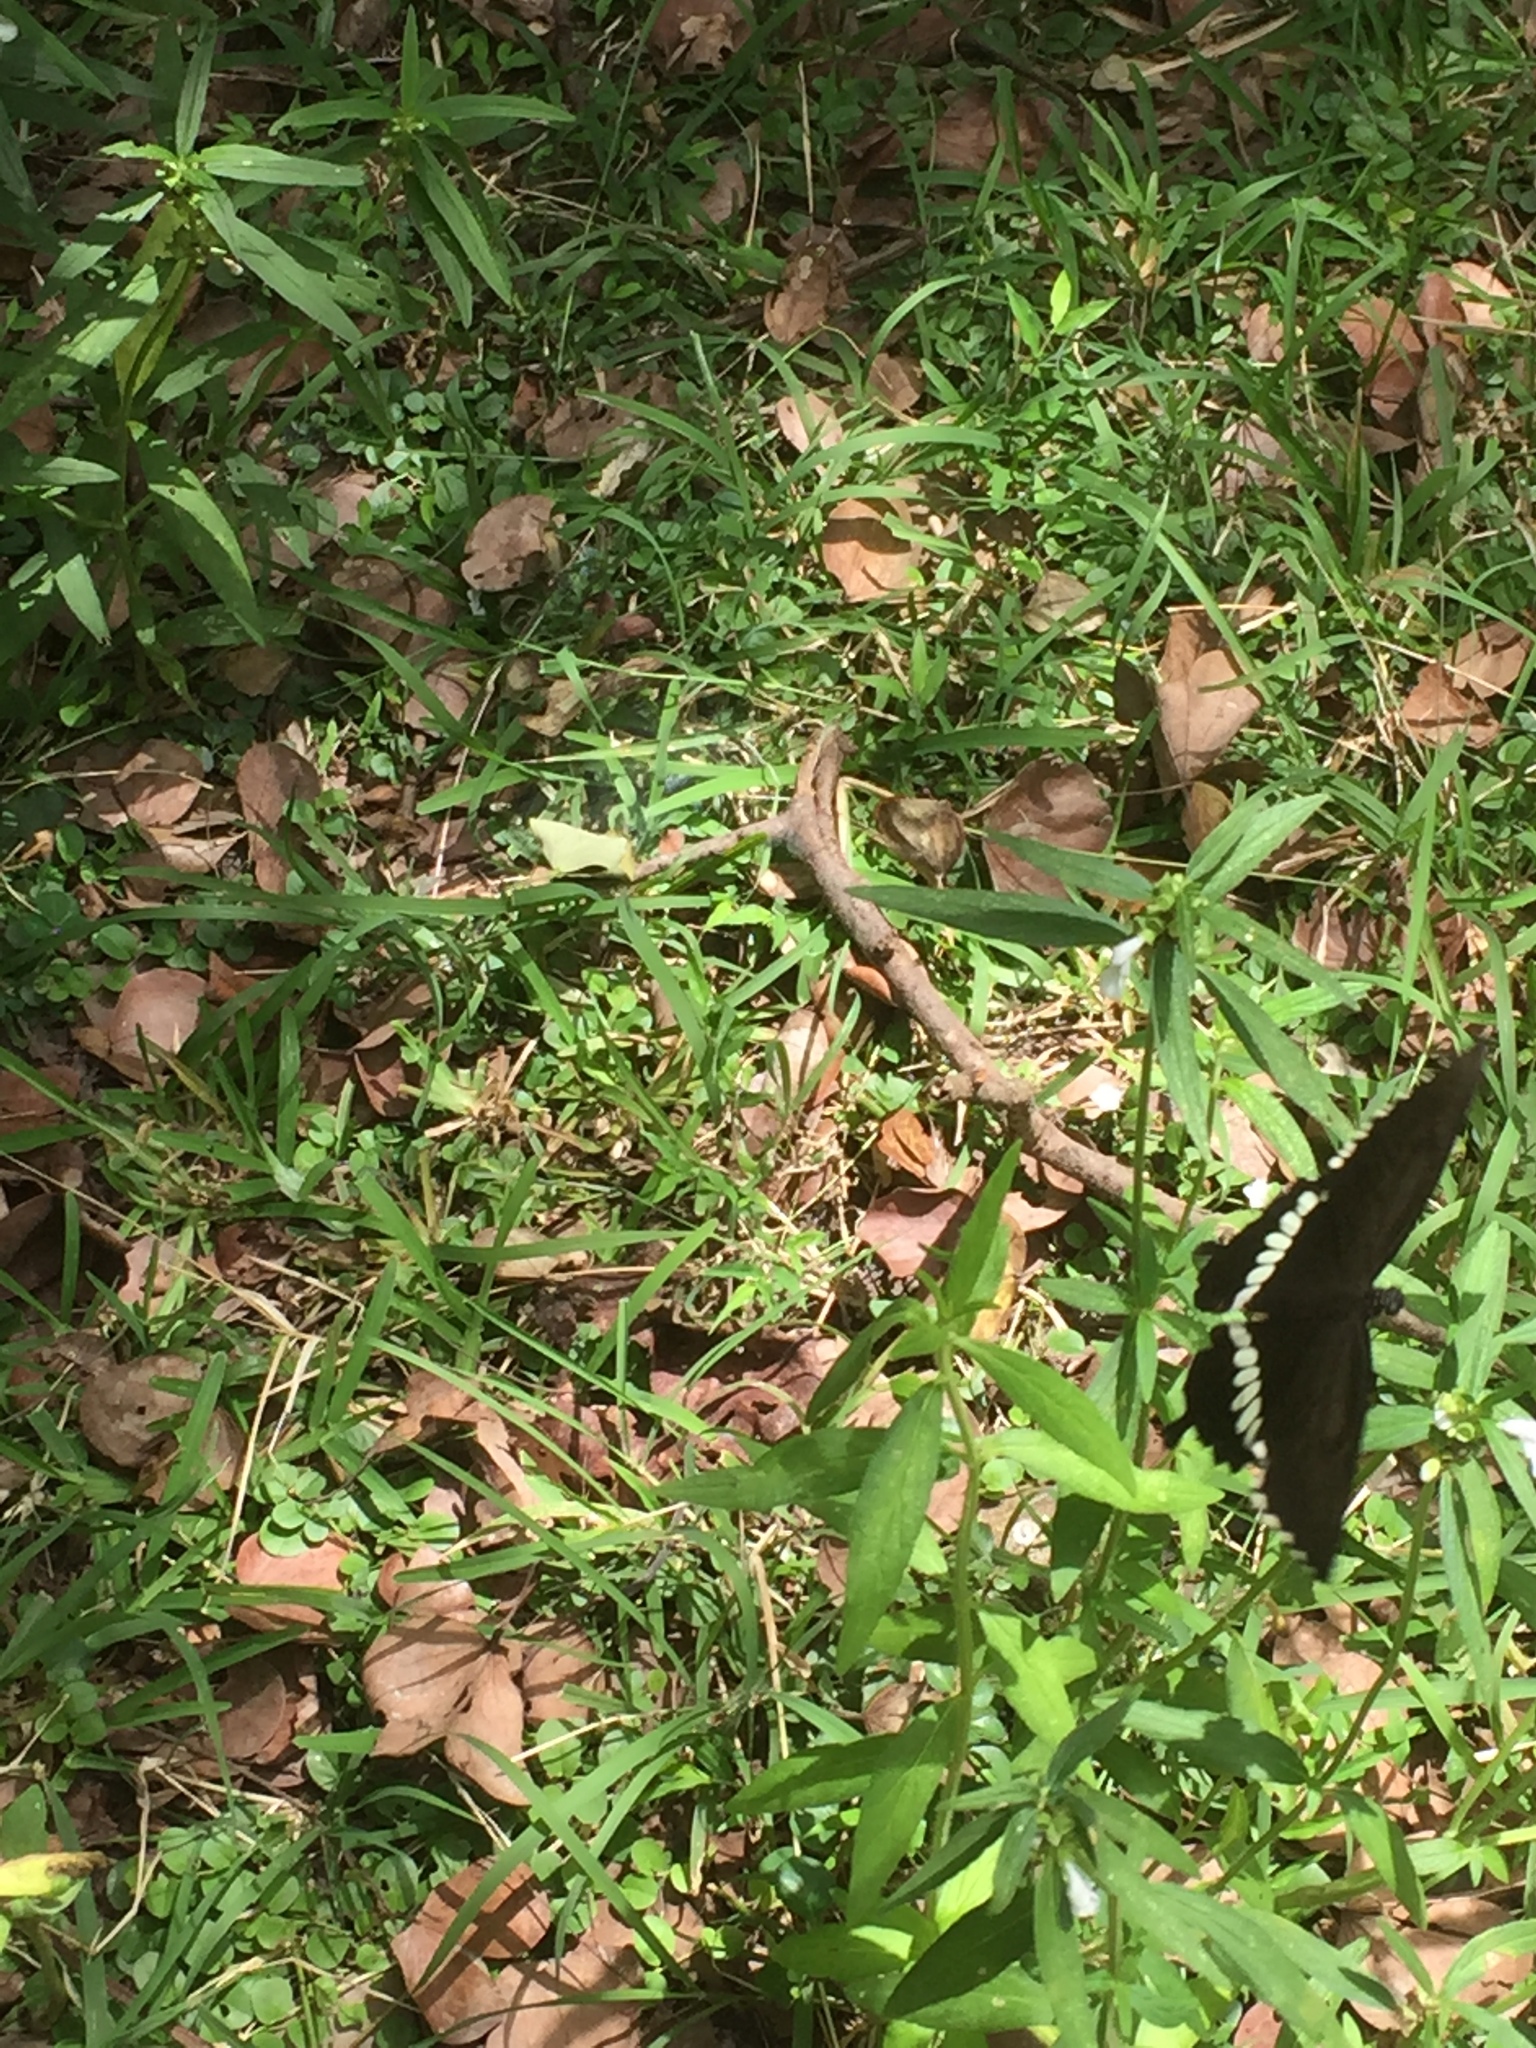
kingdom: Animalia
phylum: Arthropoda
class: Insecta
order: Lepidoptera
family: Papilionidae
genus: Papilio
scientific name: Papilio polytes
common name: Common mormon
